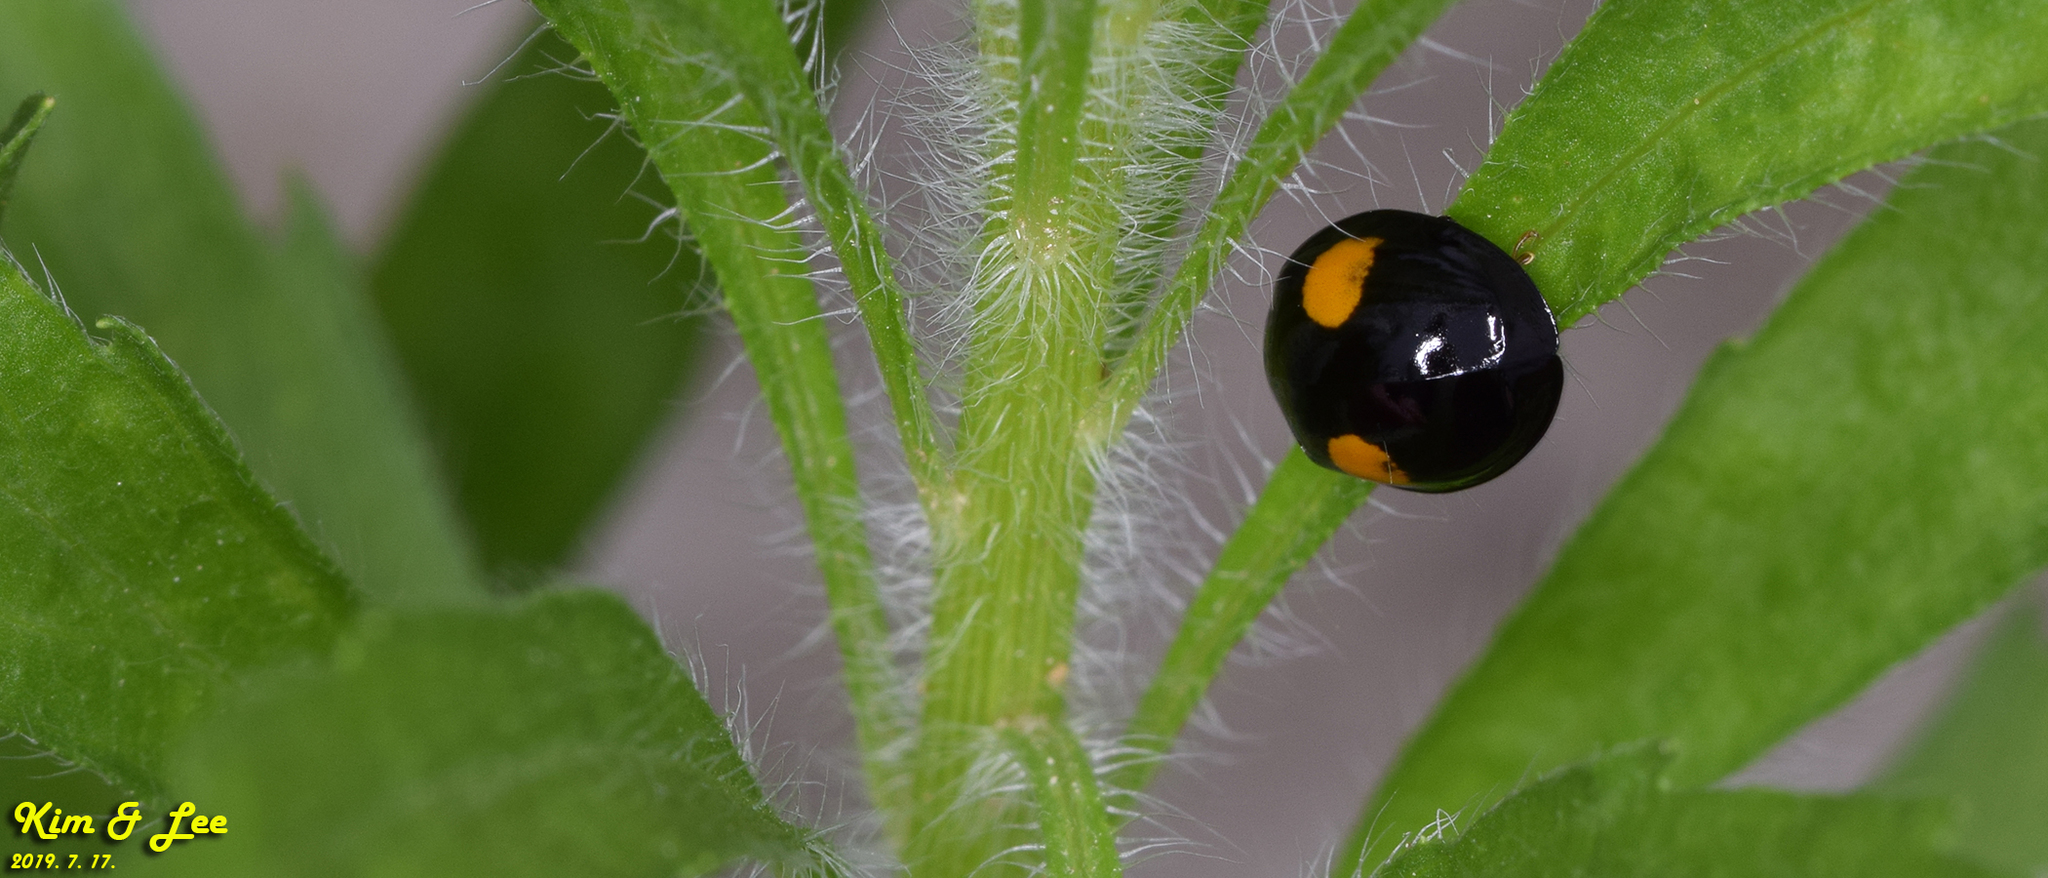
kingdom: Animalia
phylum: Arthropoda
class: Insecta
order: Coleoptera
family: Coccinellidae
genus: Harmonia
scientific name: Harmonia axyridis
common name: Harlequin ladybird
